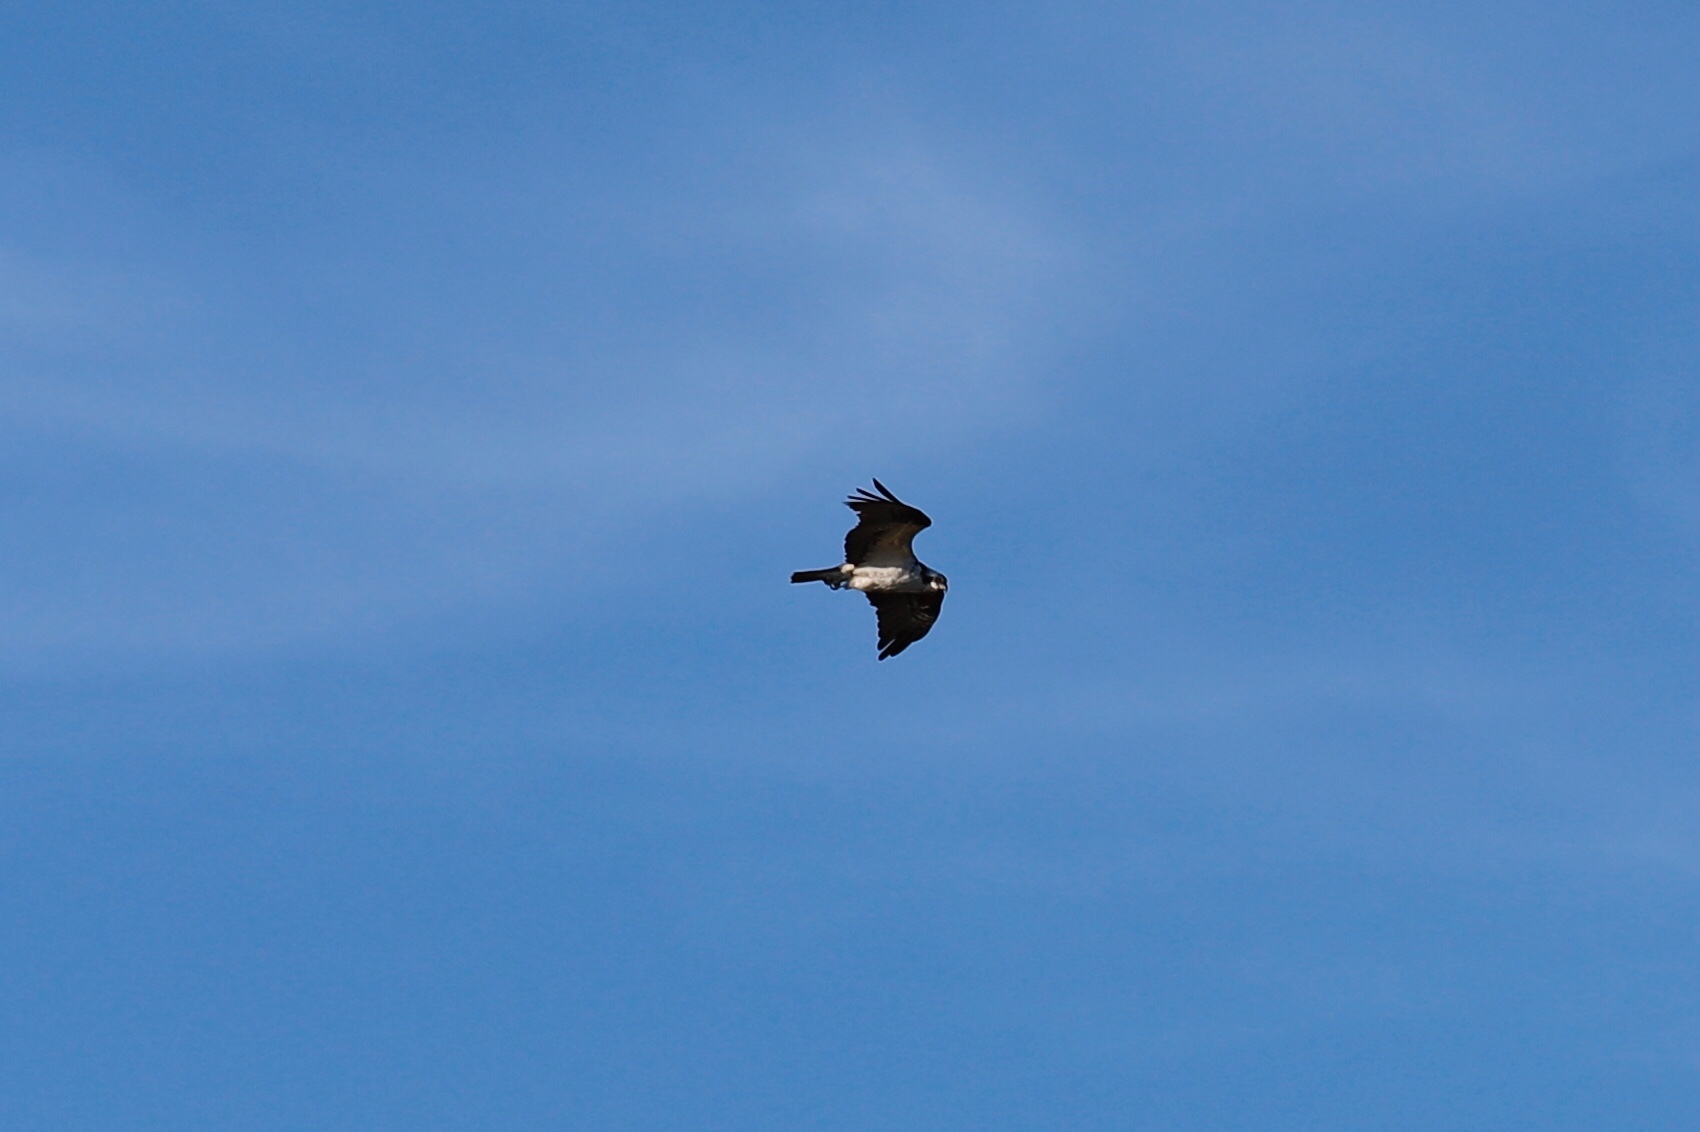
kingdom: Animalia
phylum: Chordata
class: Aves
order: Accipitriformes
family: Pandionidae
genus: Pandion
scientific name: Pandion haliaetus
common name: Osprey
